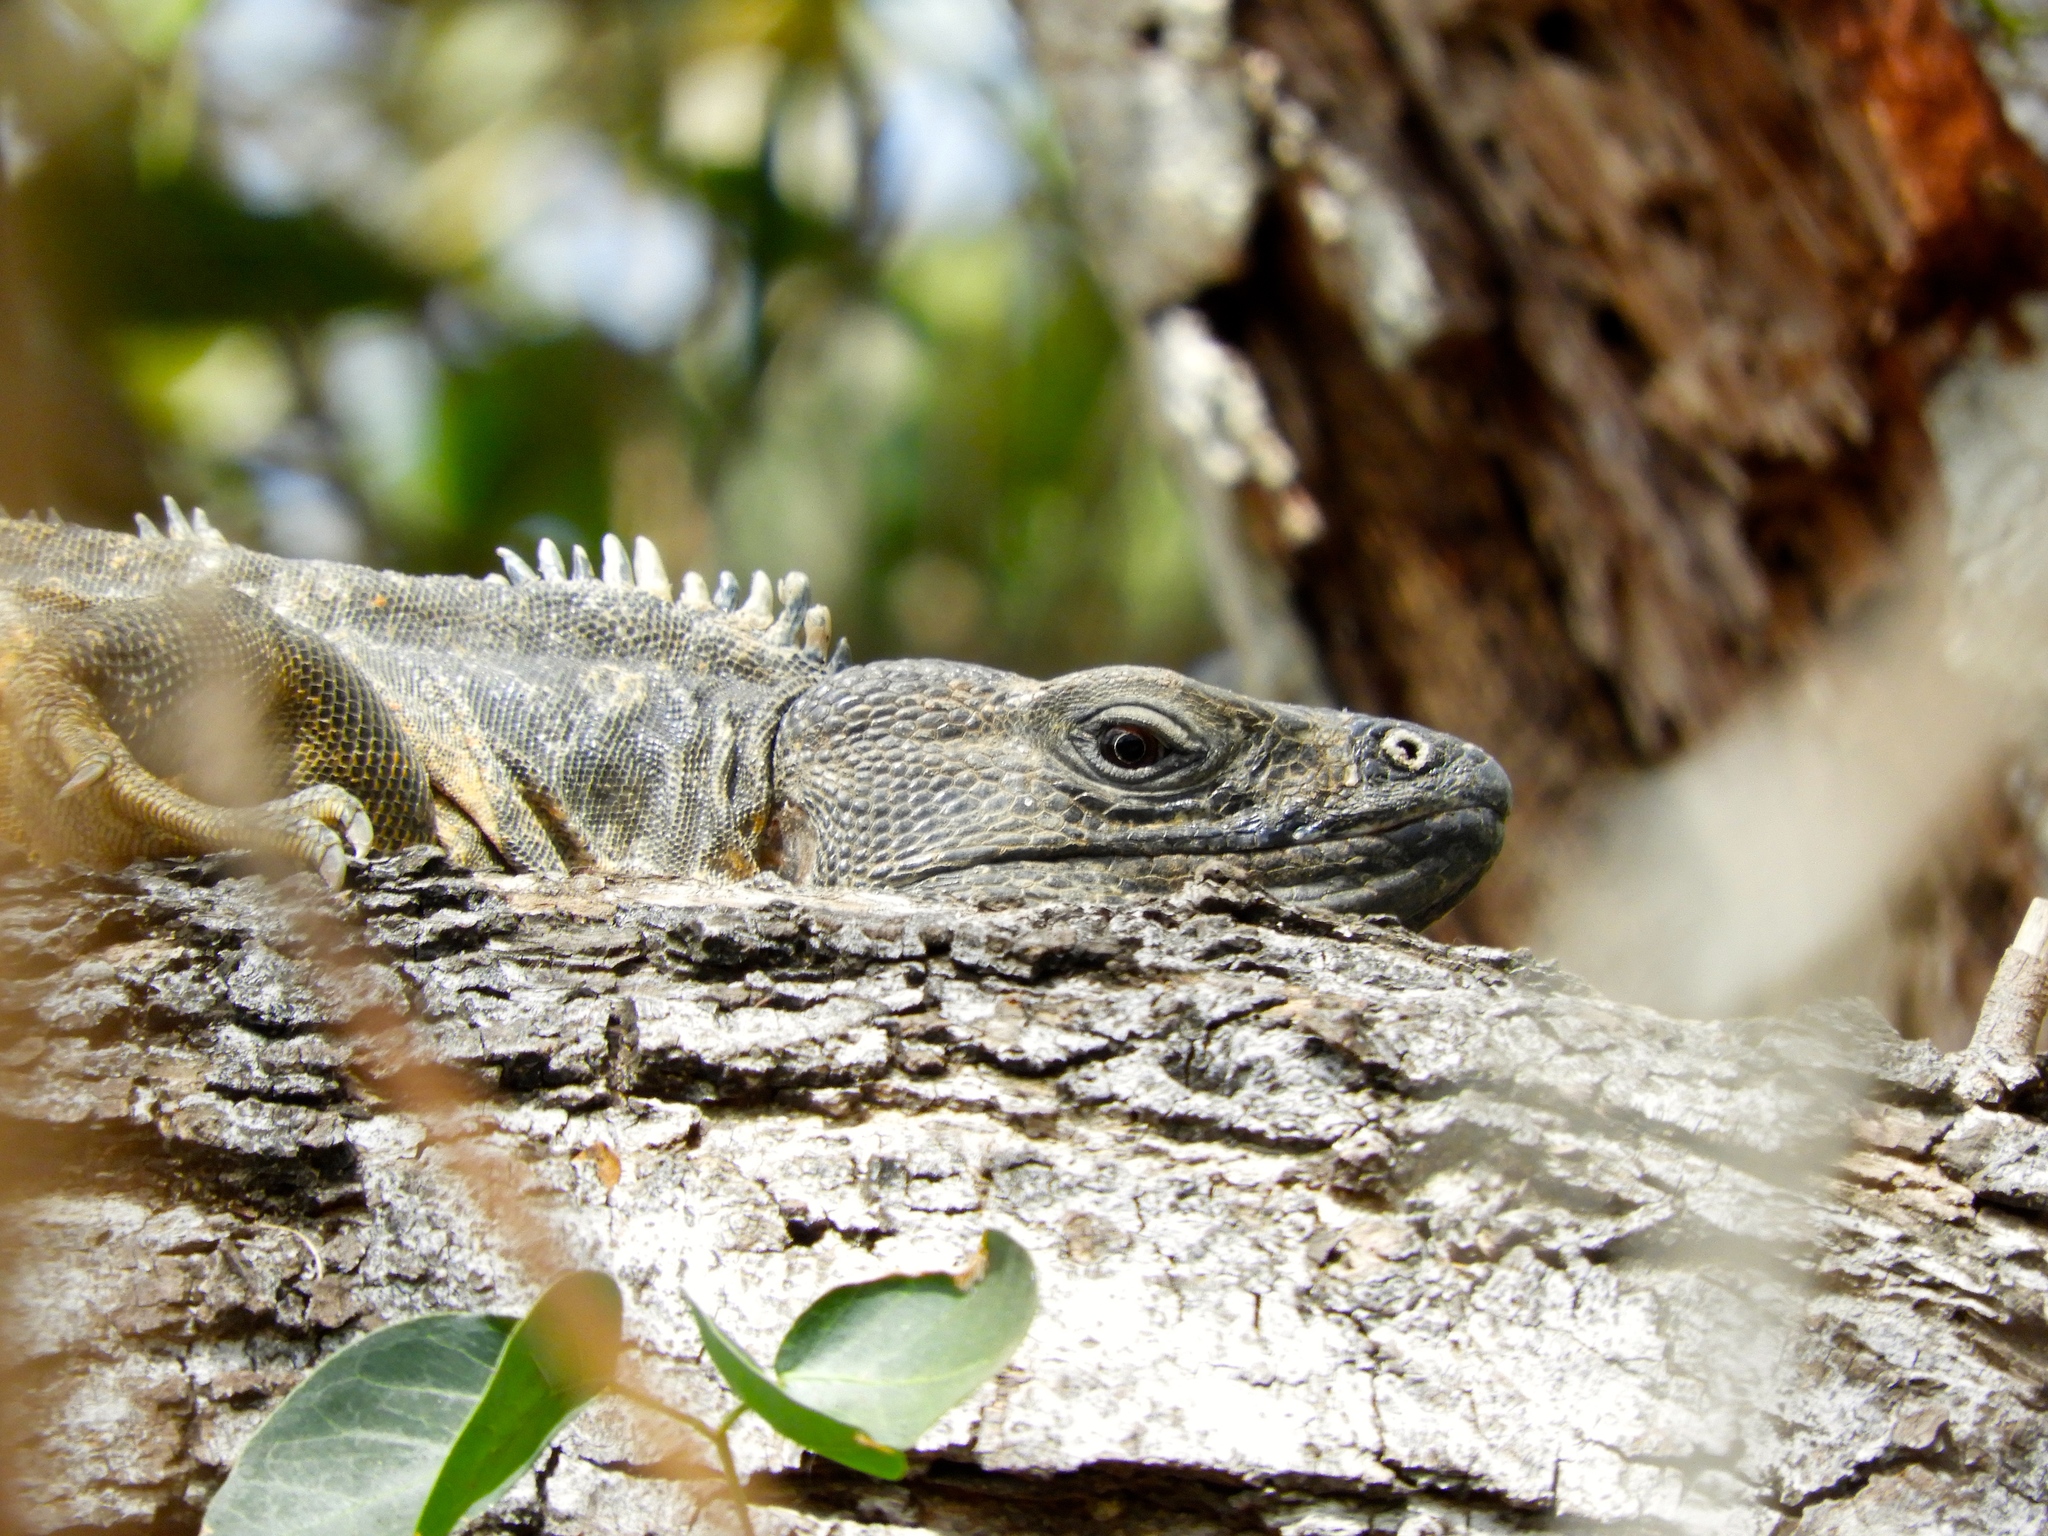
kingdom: Animalia
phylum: Chordata
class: Squamata
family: Iguanidae
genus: Ctenosaura
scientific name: Ctenosaura pectinata
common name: Guerreran spiny-tailed iguana
